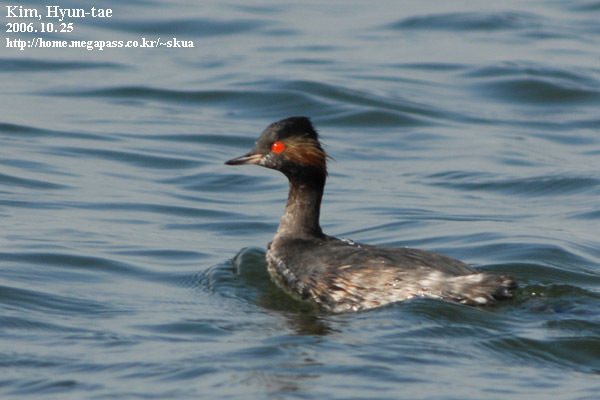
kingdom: Animalia
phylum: Chordata
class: Aves
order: Podicipediformes
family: Podicipedidae
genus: Podiceps
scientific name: Podiceps nigricollis
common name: Black-necked grebe
